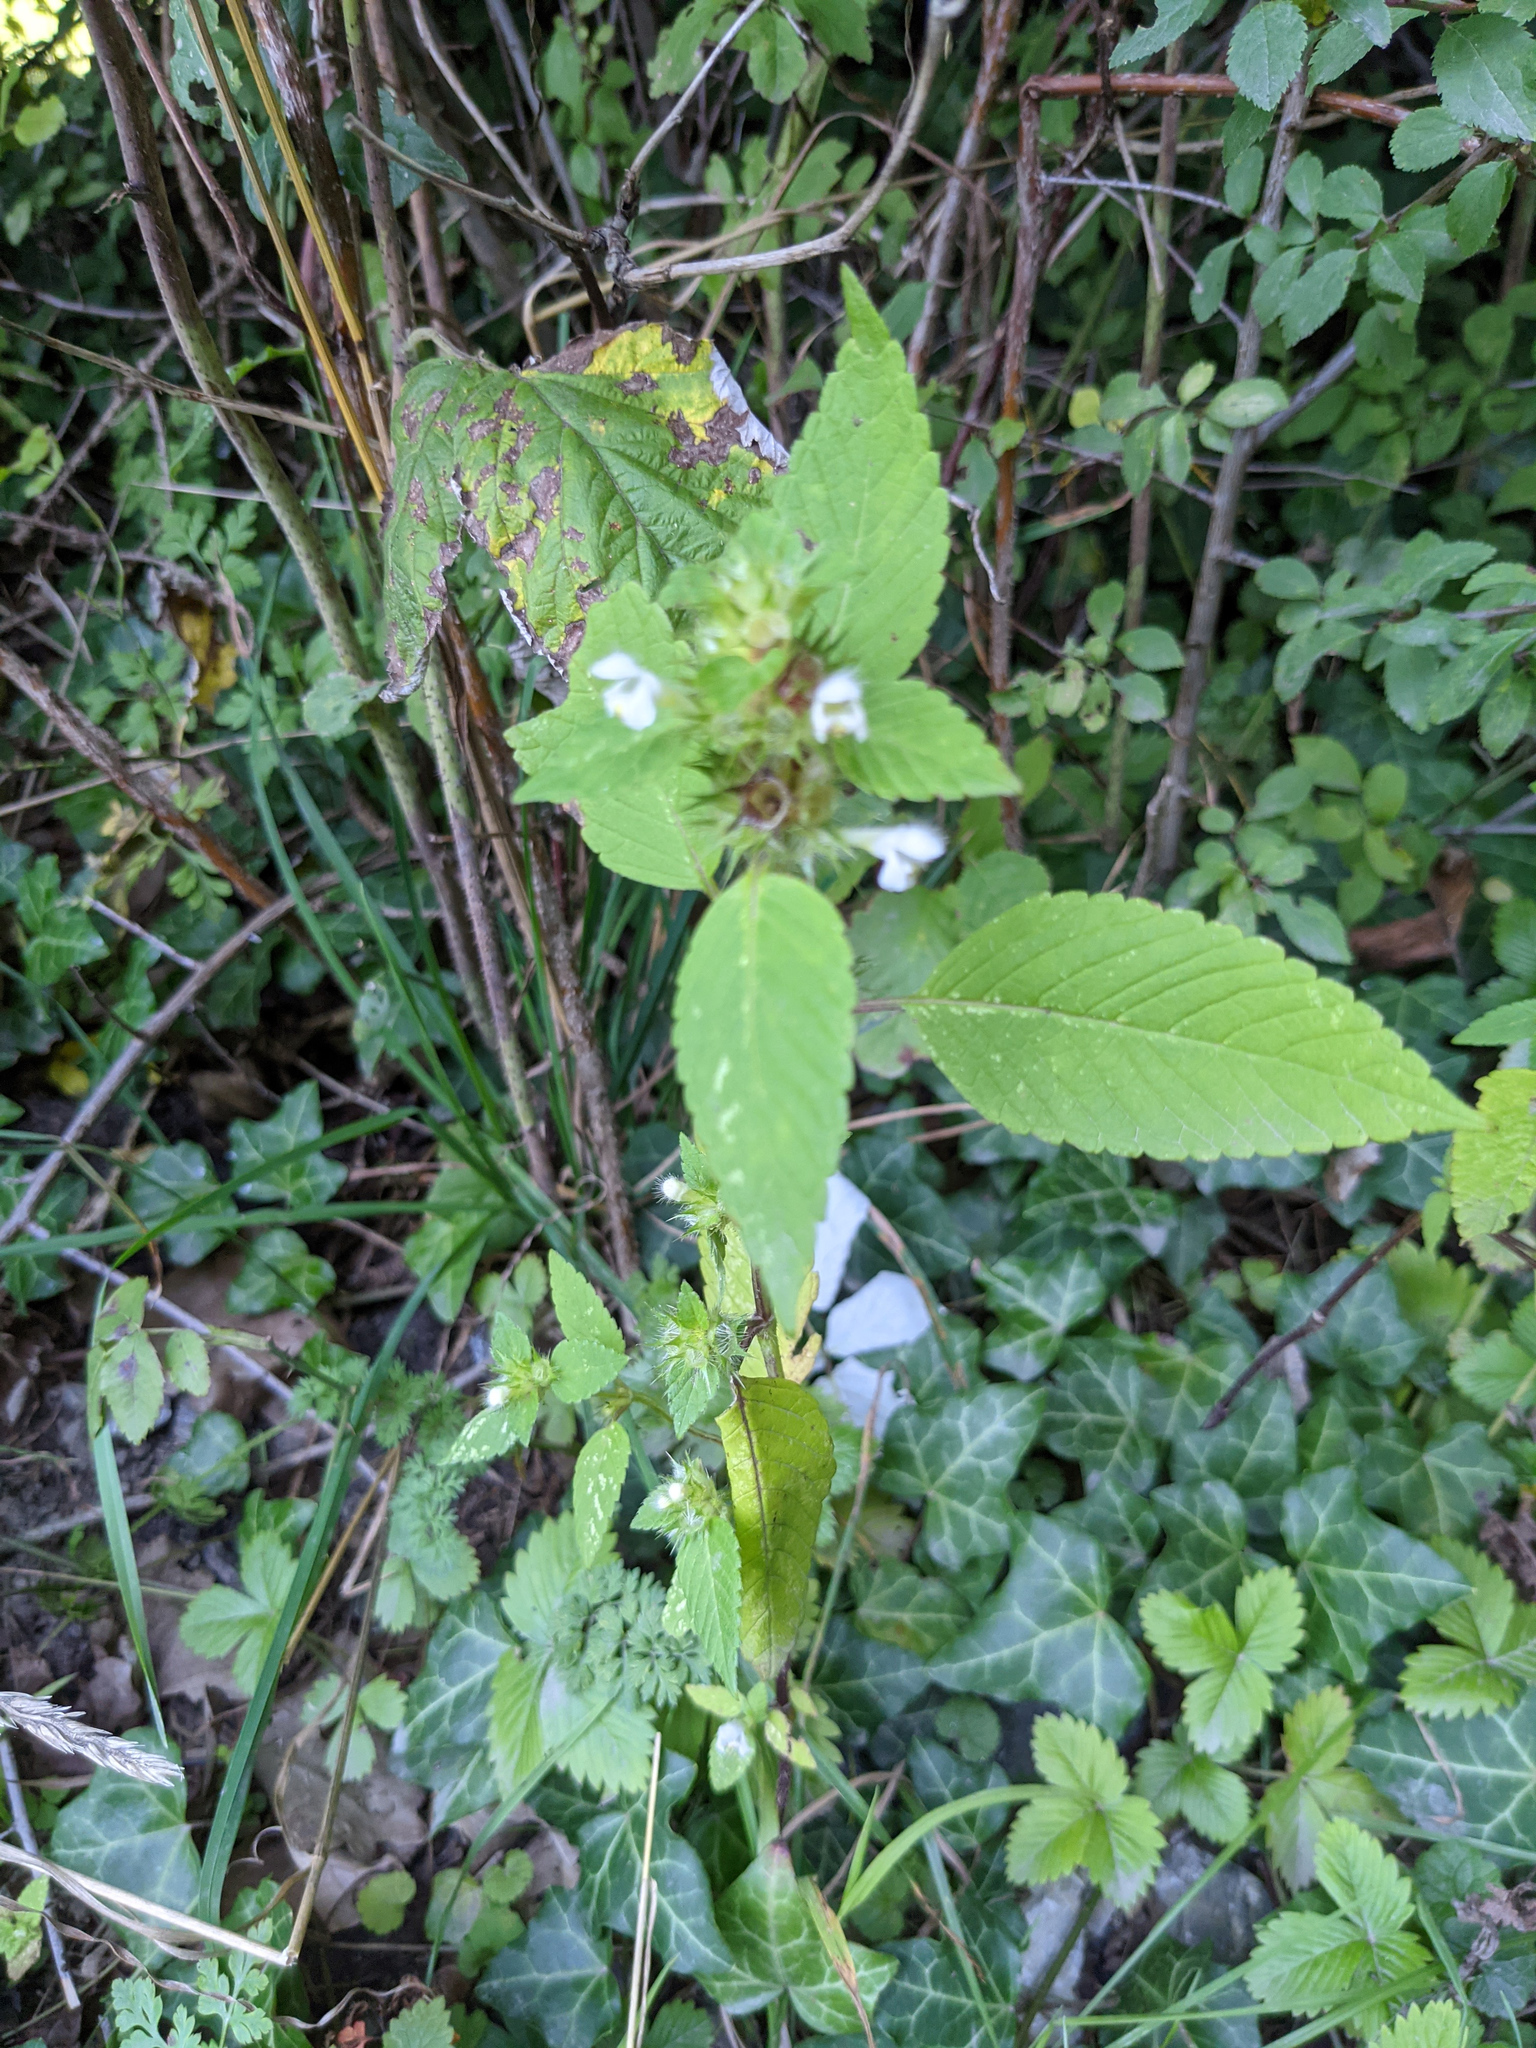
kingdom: Plantae
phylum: Tracheophyta
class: Magnoliopsida
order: Lamiales
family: Lamiaceae
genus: Galeopsis
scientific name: Galeopsis tetrahit
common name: Common hemp-nettle
